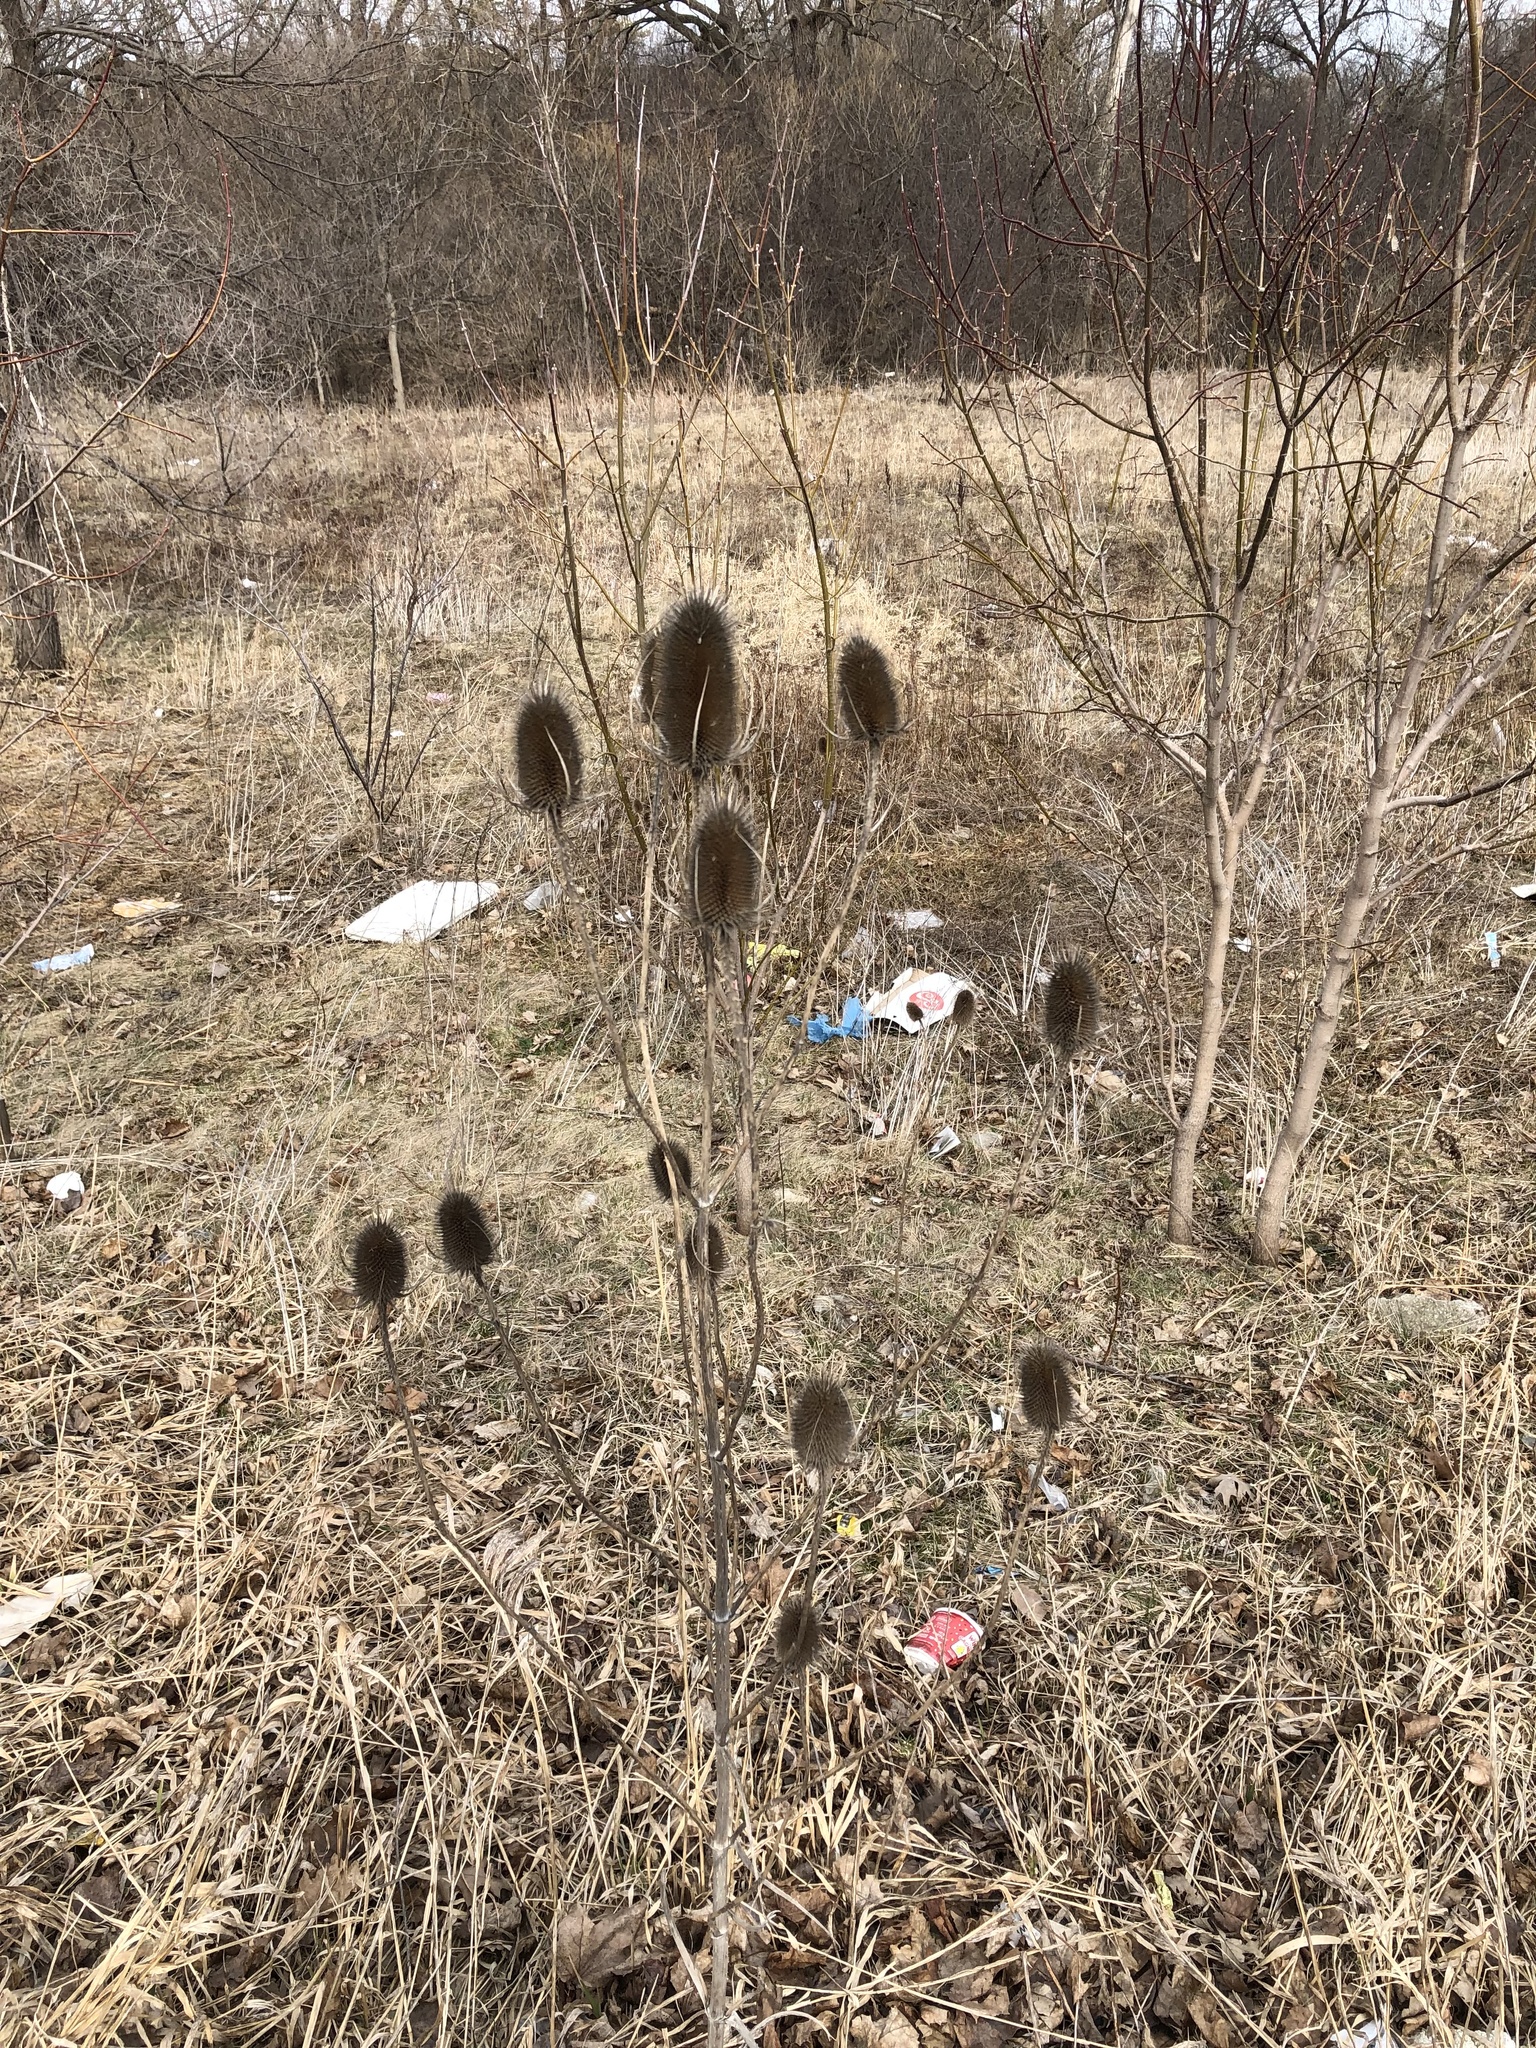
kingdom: Plantae
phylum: Tracheophyta
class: Magnoliopsida
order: Dipsacales
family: Caprifoliaceae
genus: Dipsacus
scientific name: Dipsacus fullonum
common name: Teasel
